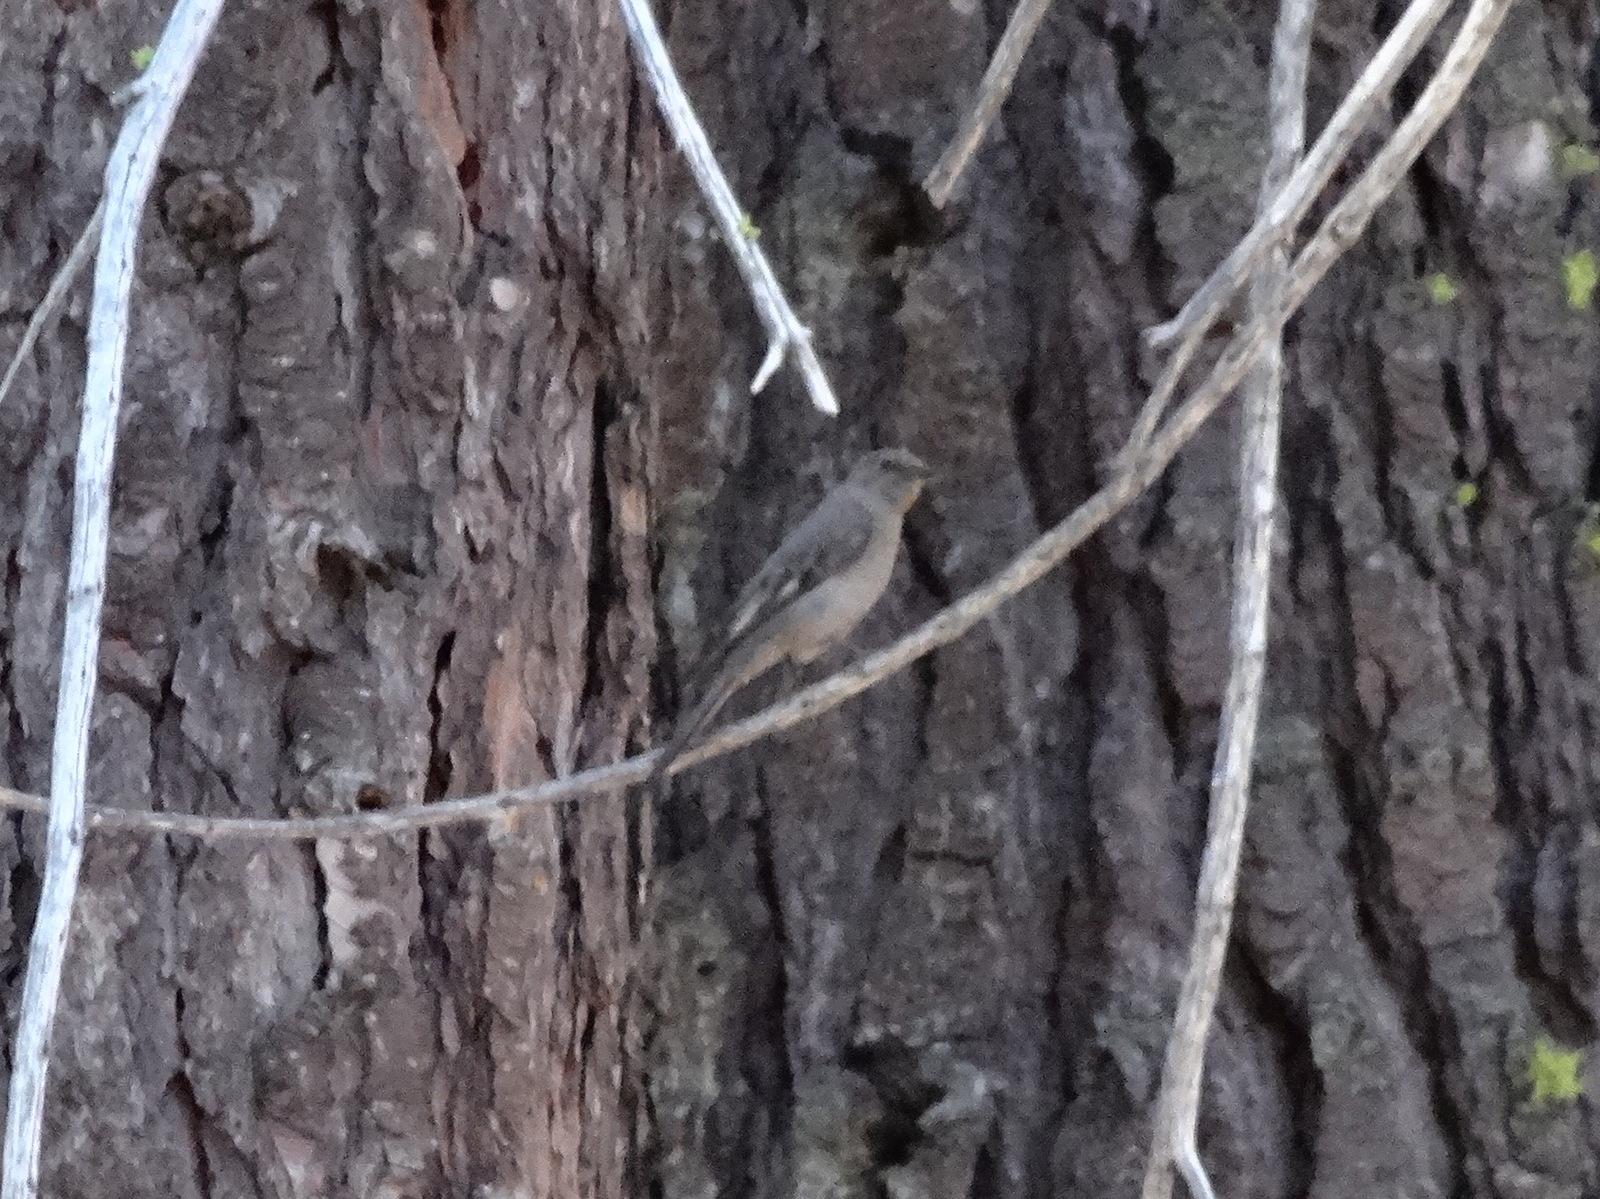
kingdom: Animalia
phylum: Chordata
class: Aves
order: Passeriformes
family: Turdidae
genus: Myadestes
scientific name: Myadestes townsendi
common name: Townsend's solitaire
